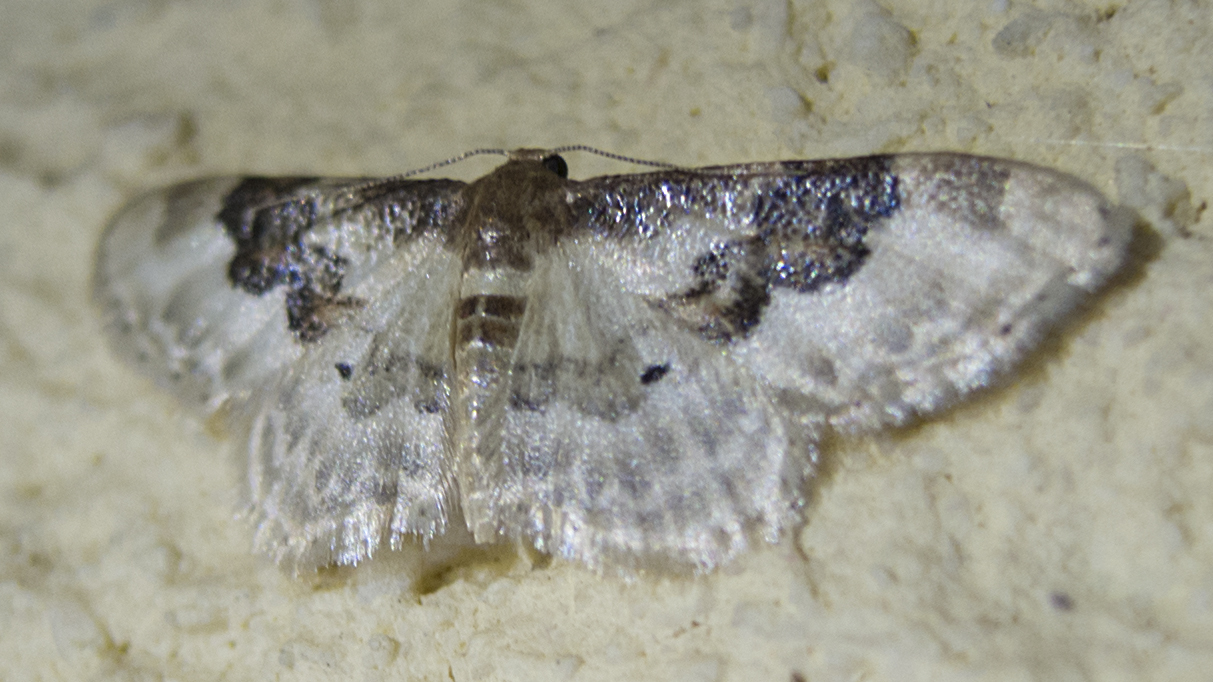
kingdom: Animalia
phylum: Arthropoda
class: Insecta
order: Lepidoptera
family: Geometridae
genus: Idaea
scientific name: Idaea rusticata
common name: Least carpet
